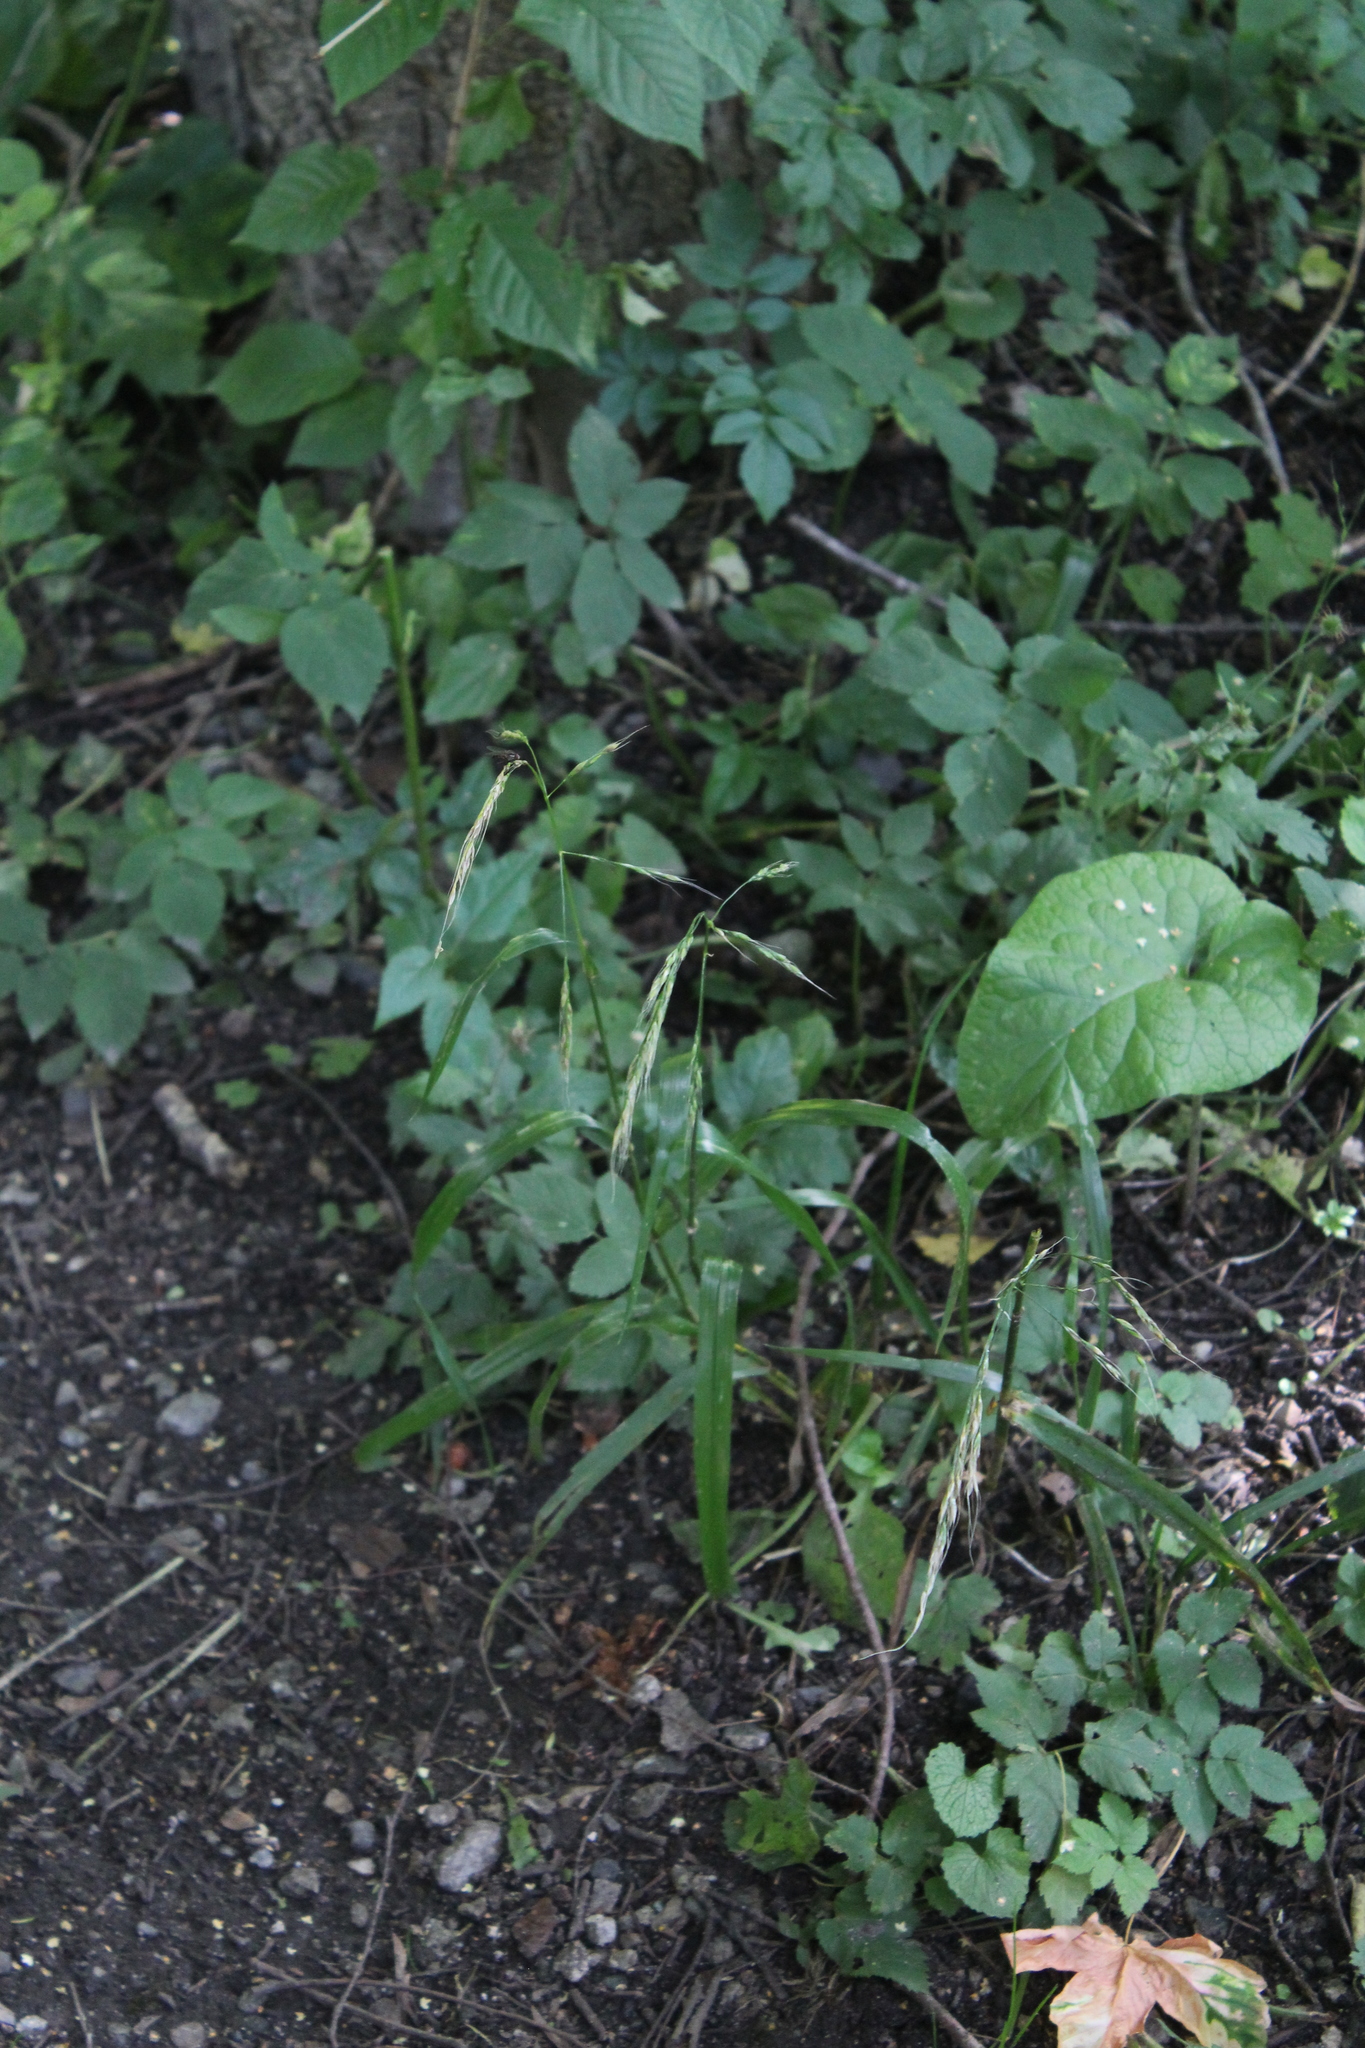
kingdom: Plantae
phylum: Tracheophyta
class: Liliopsida
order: Poales
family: Poaceae
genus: Lolium
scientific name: Lolium giganteum
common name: Giant fescue
